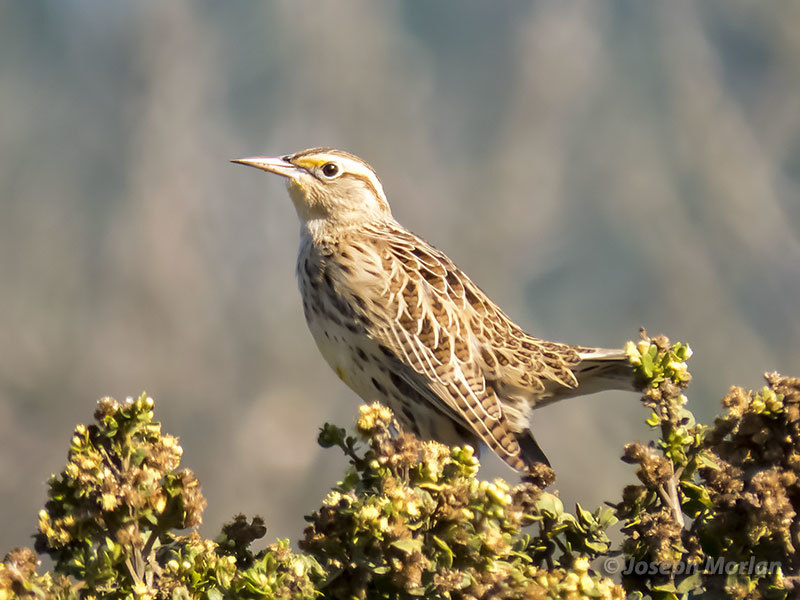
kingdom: Animalia
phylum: Chordata
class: Aves
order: Passeriformes
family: Icteridae
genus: Sturnella
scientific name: Sturnella neglecta
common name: Western meadowlark
